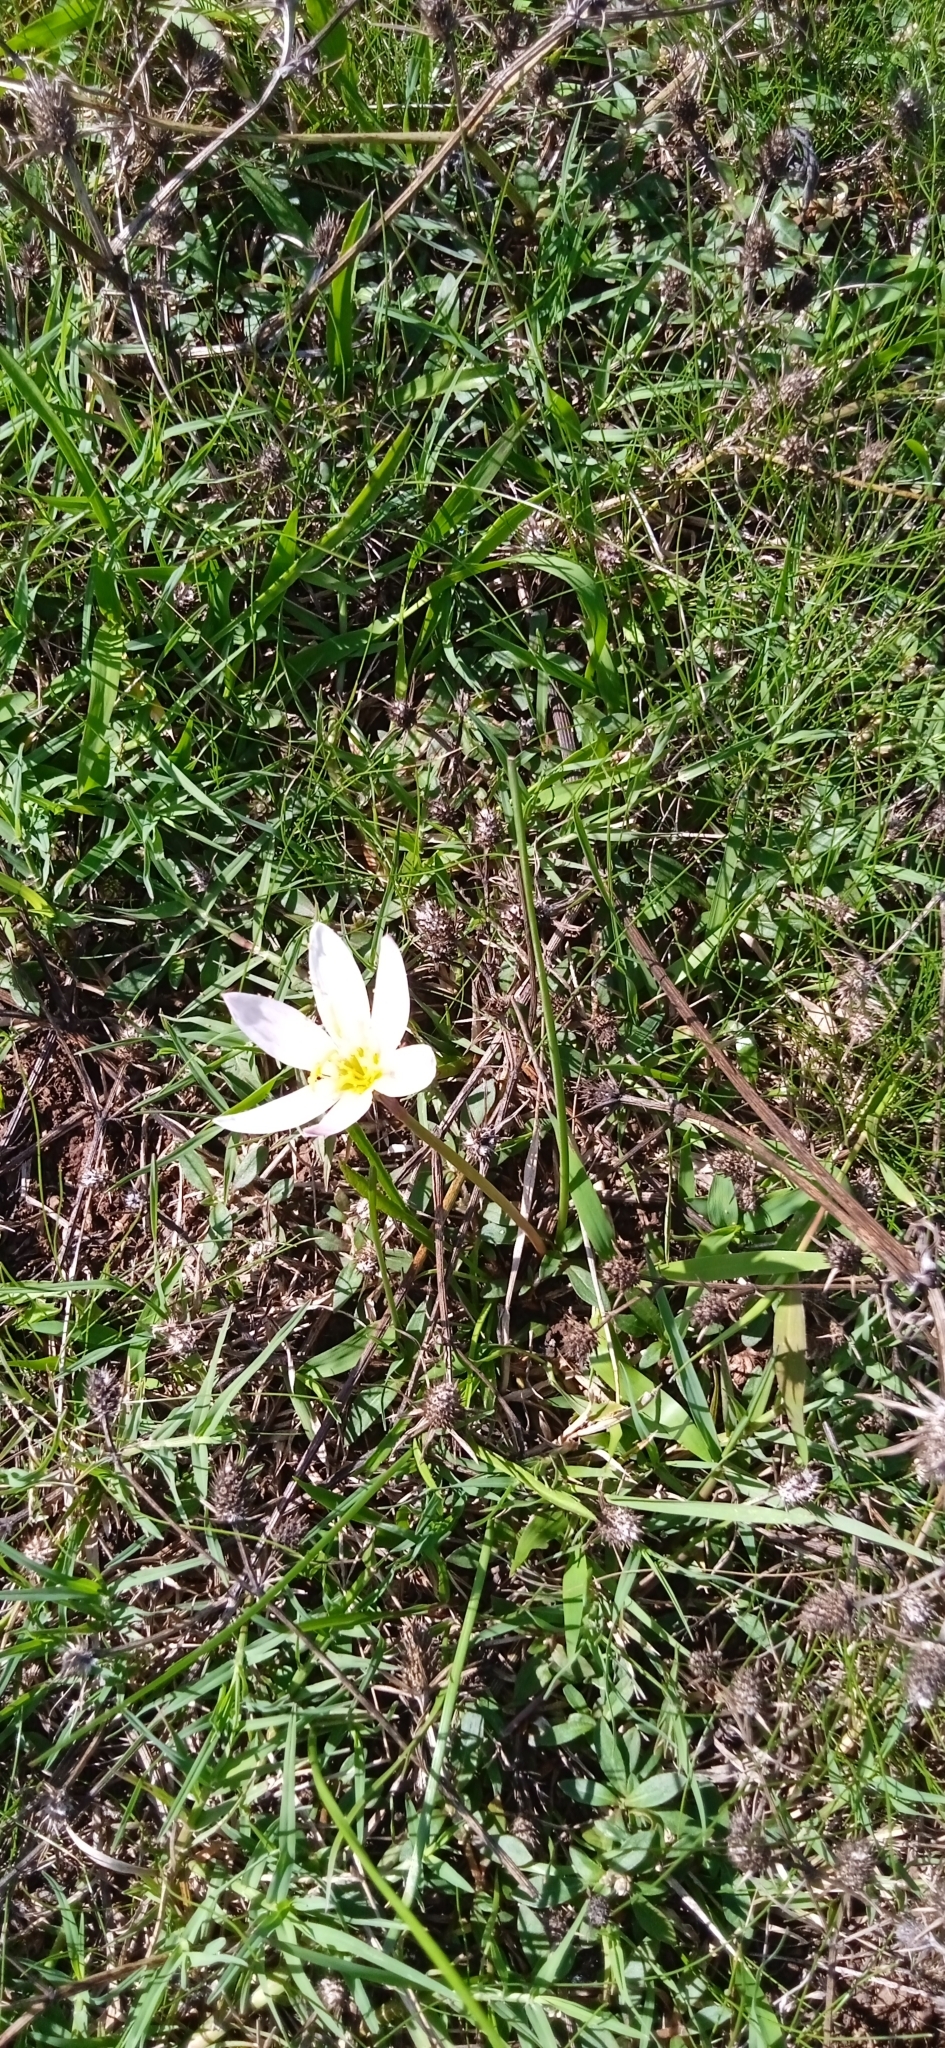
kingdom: Plantae
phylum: Tracheophyta
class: Liliopsida
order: Asparagales
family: Amaryllidaceae
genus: Zephyranthes
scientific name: Zephyranthes candida
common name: Autumn zephyrlily
